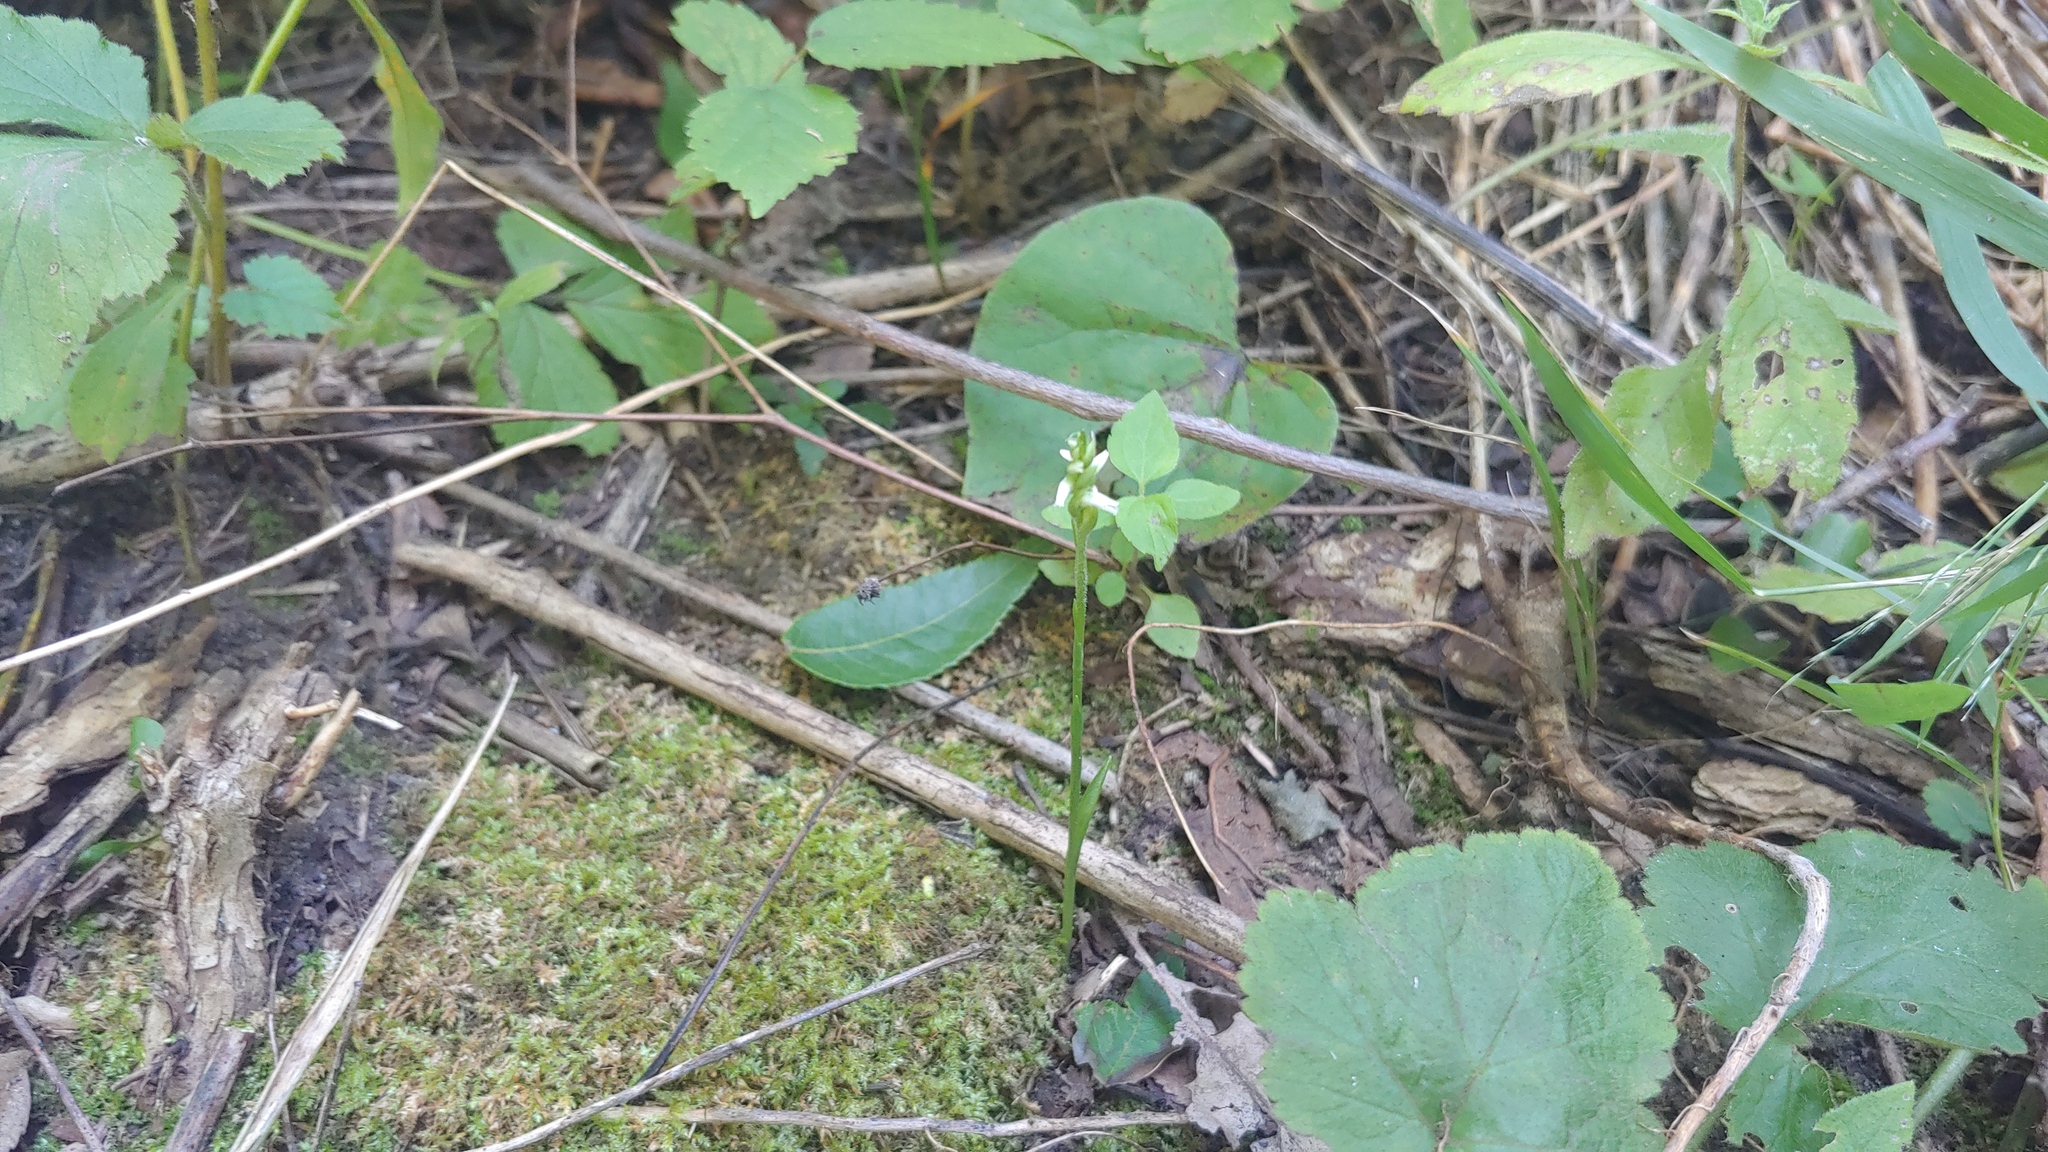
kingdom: Plantae
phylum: Tracheophyta
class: Liliopsida
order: Asparagales
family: Orchidaceae
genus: Spiranthes
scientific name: Spiranthes ovalis
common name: October ladies'-tresses
